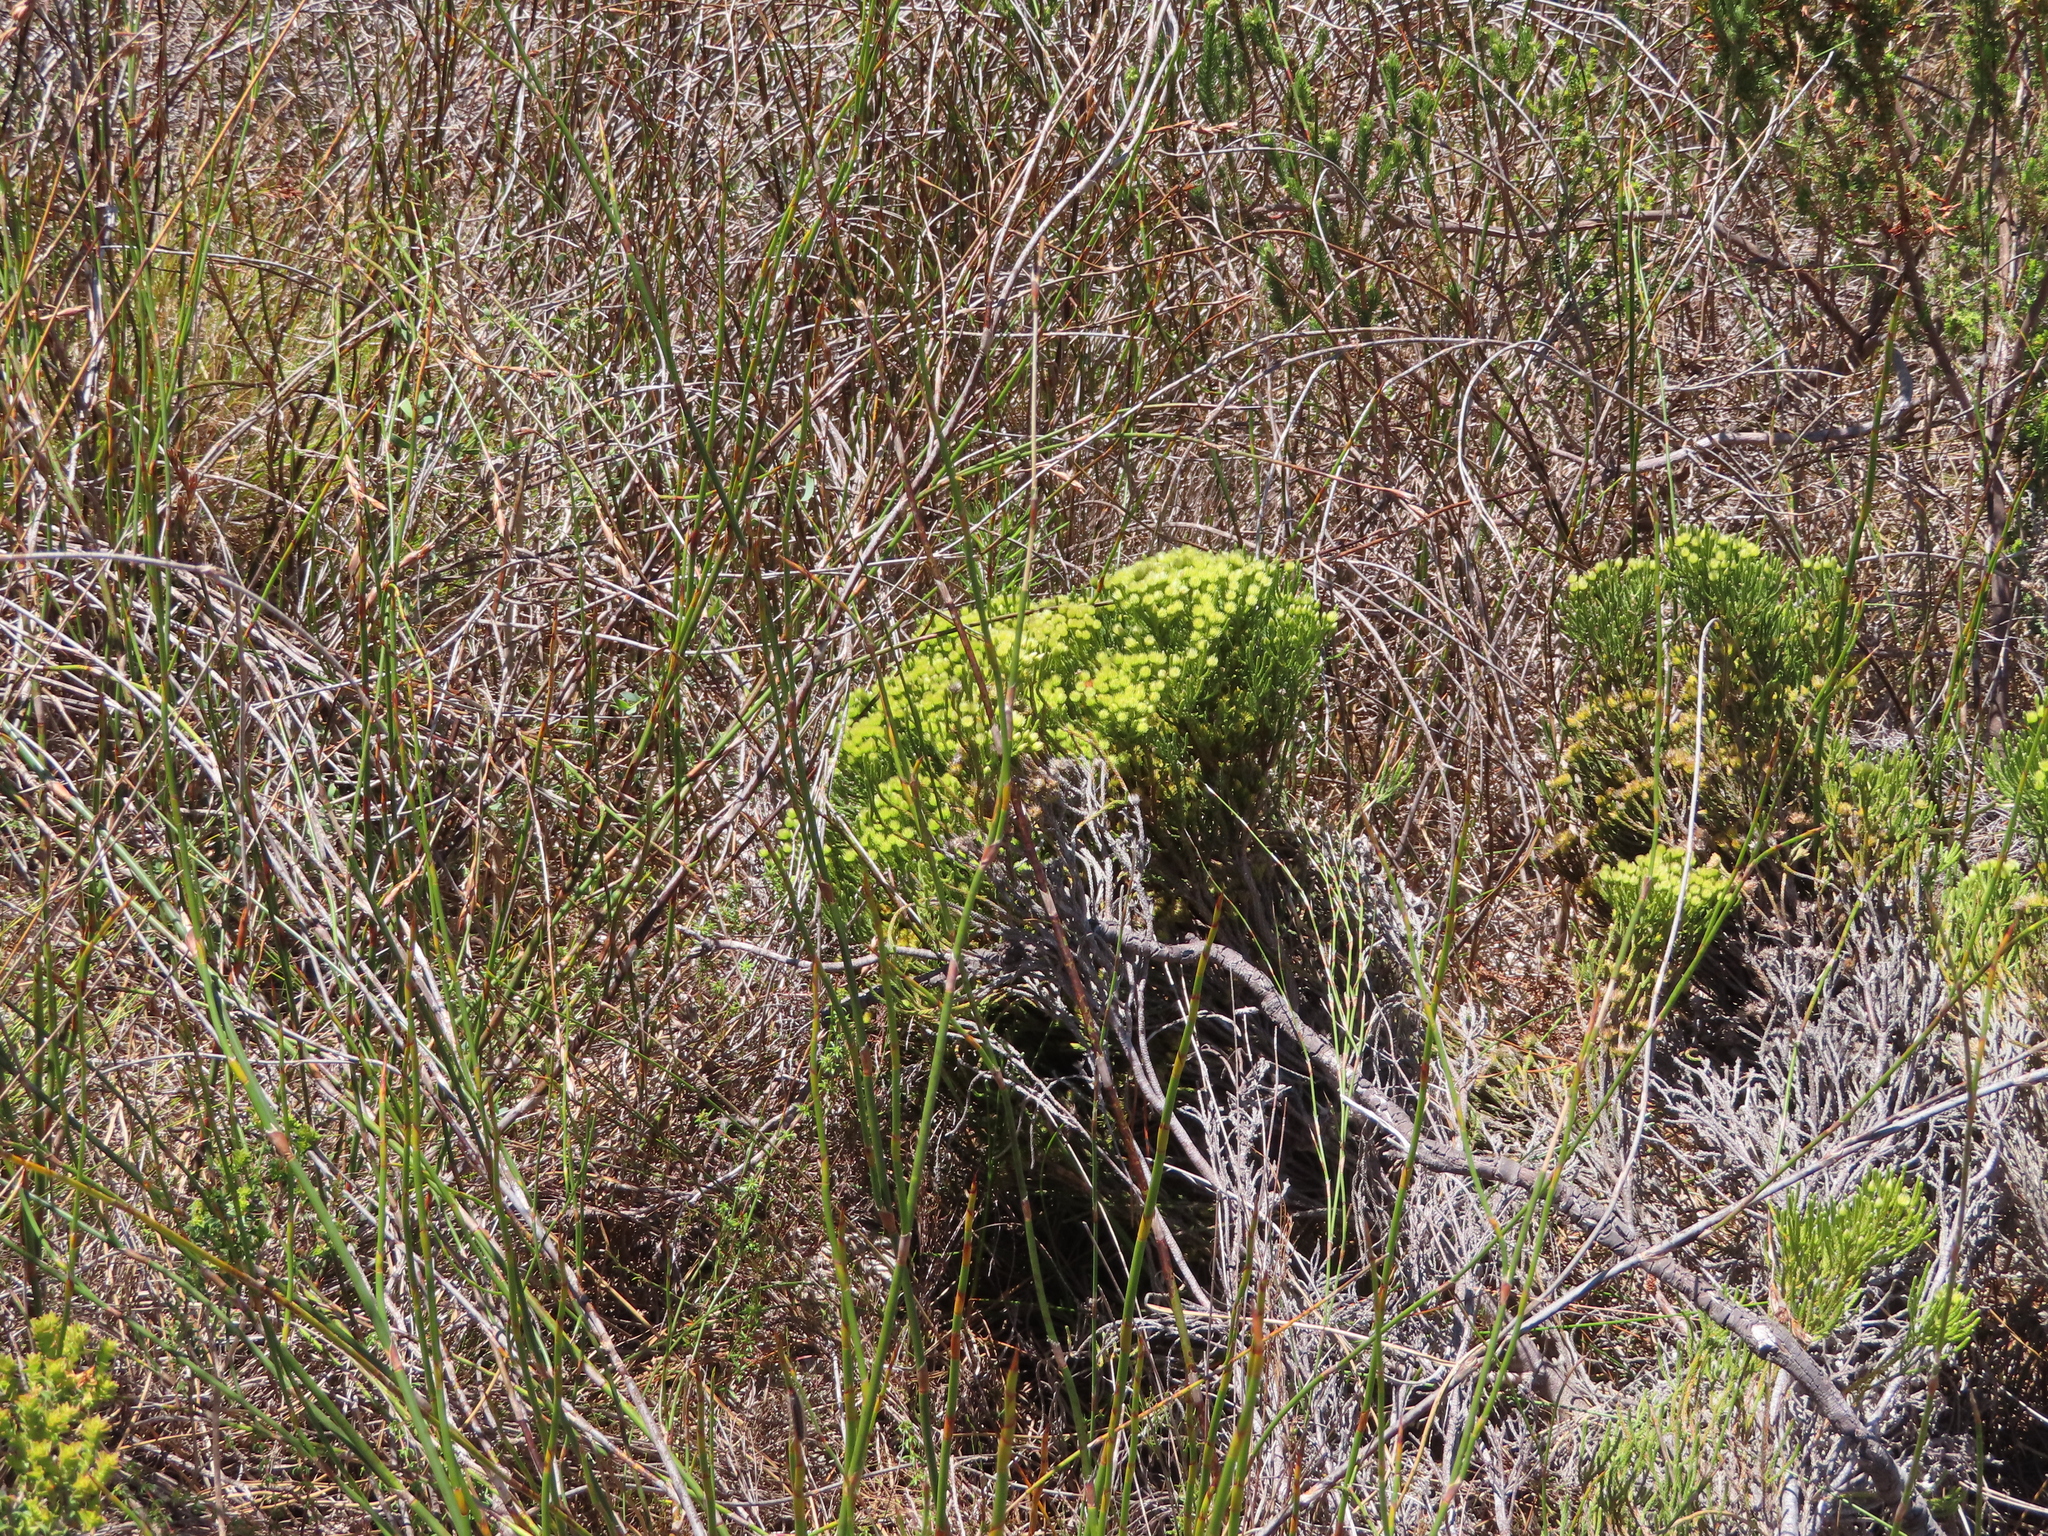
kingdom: Plantae
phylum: Tracheophyta
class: Magnoliopsida
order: Bruniales
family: Bruniaceae
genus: Brunia
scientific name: Brunia paleacea
